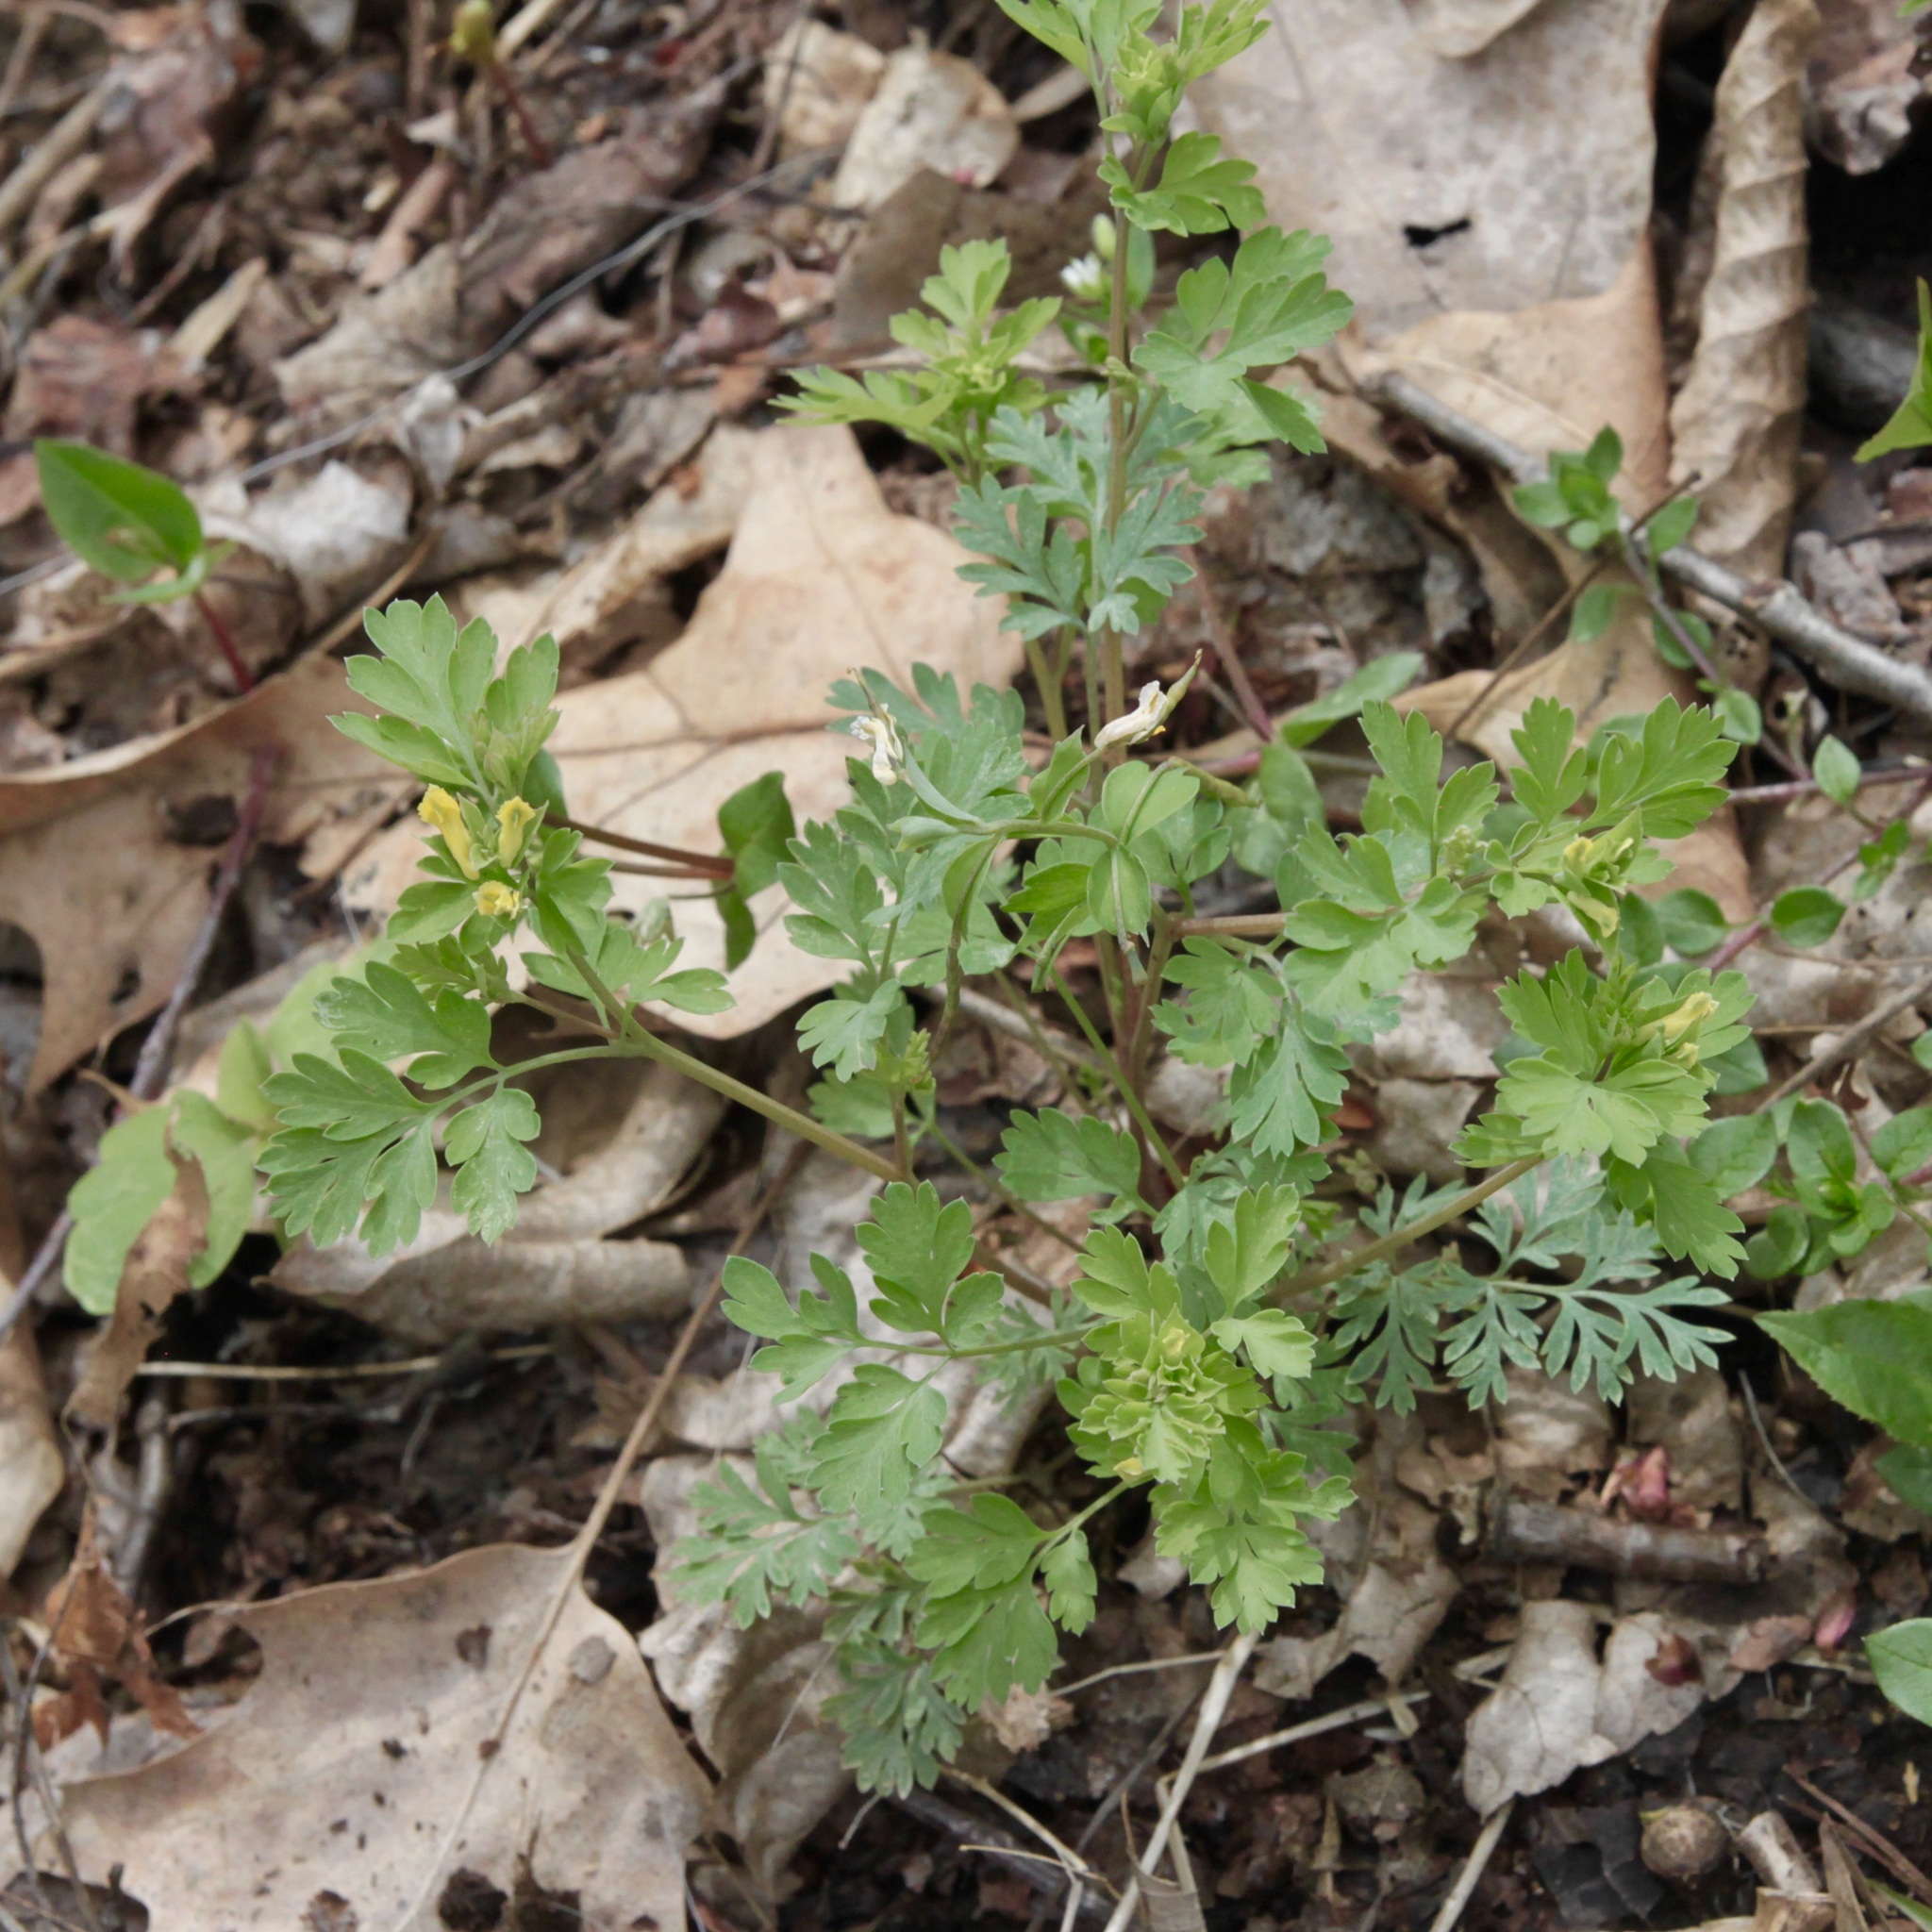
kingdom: Plantae
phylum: Tracheophyta
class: Magnoliopsida
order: Ranunculales
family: Papaveraceae
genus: Corydalis
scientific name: Corydalis flavula
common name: Yellow corydalis
